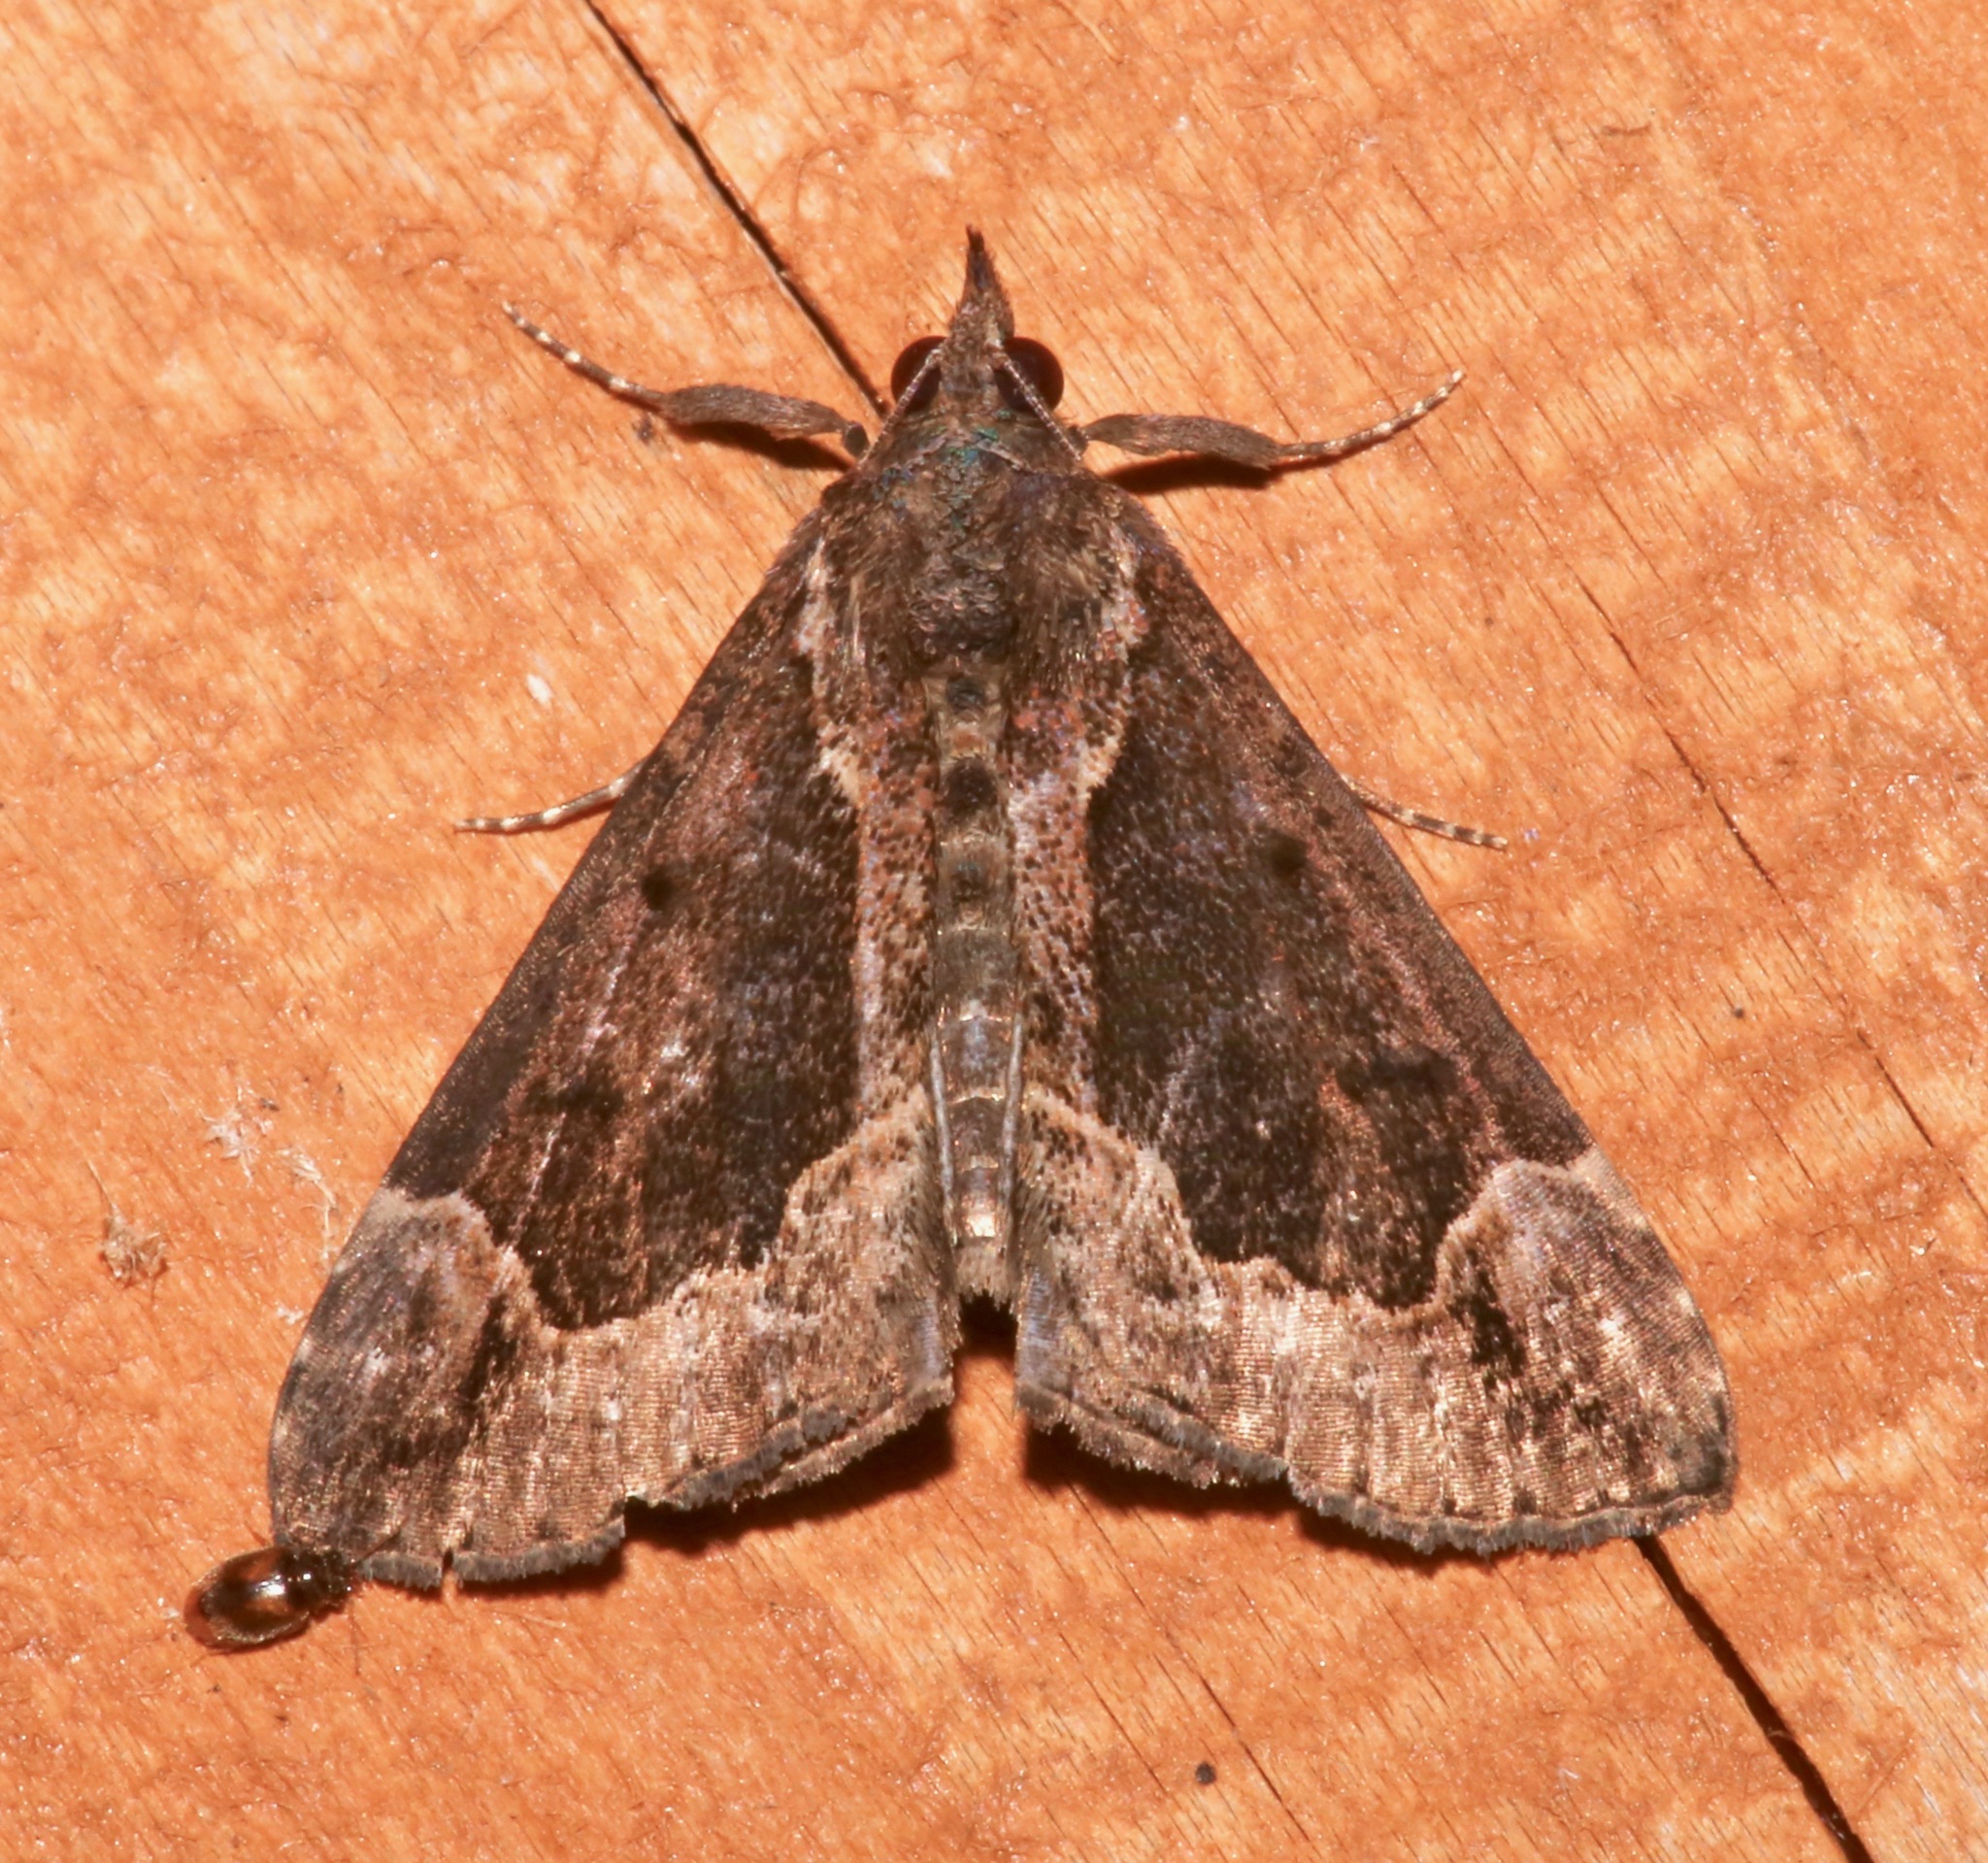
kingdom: Animalia
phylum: Arthropoda
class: Insecta
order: Lepidoptera
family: Erebidae
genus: Hypena
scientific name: Hypena baltimoralis
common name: Baltimore snout
